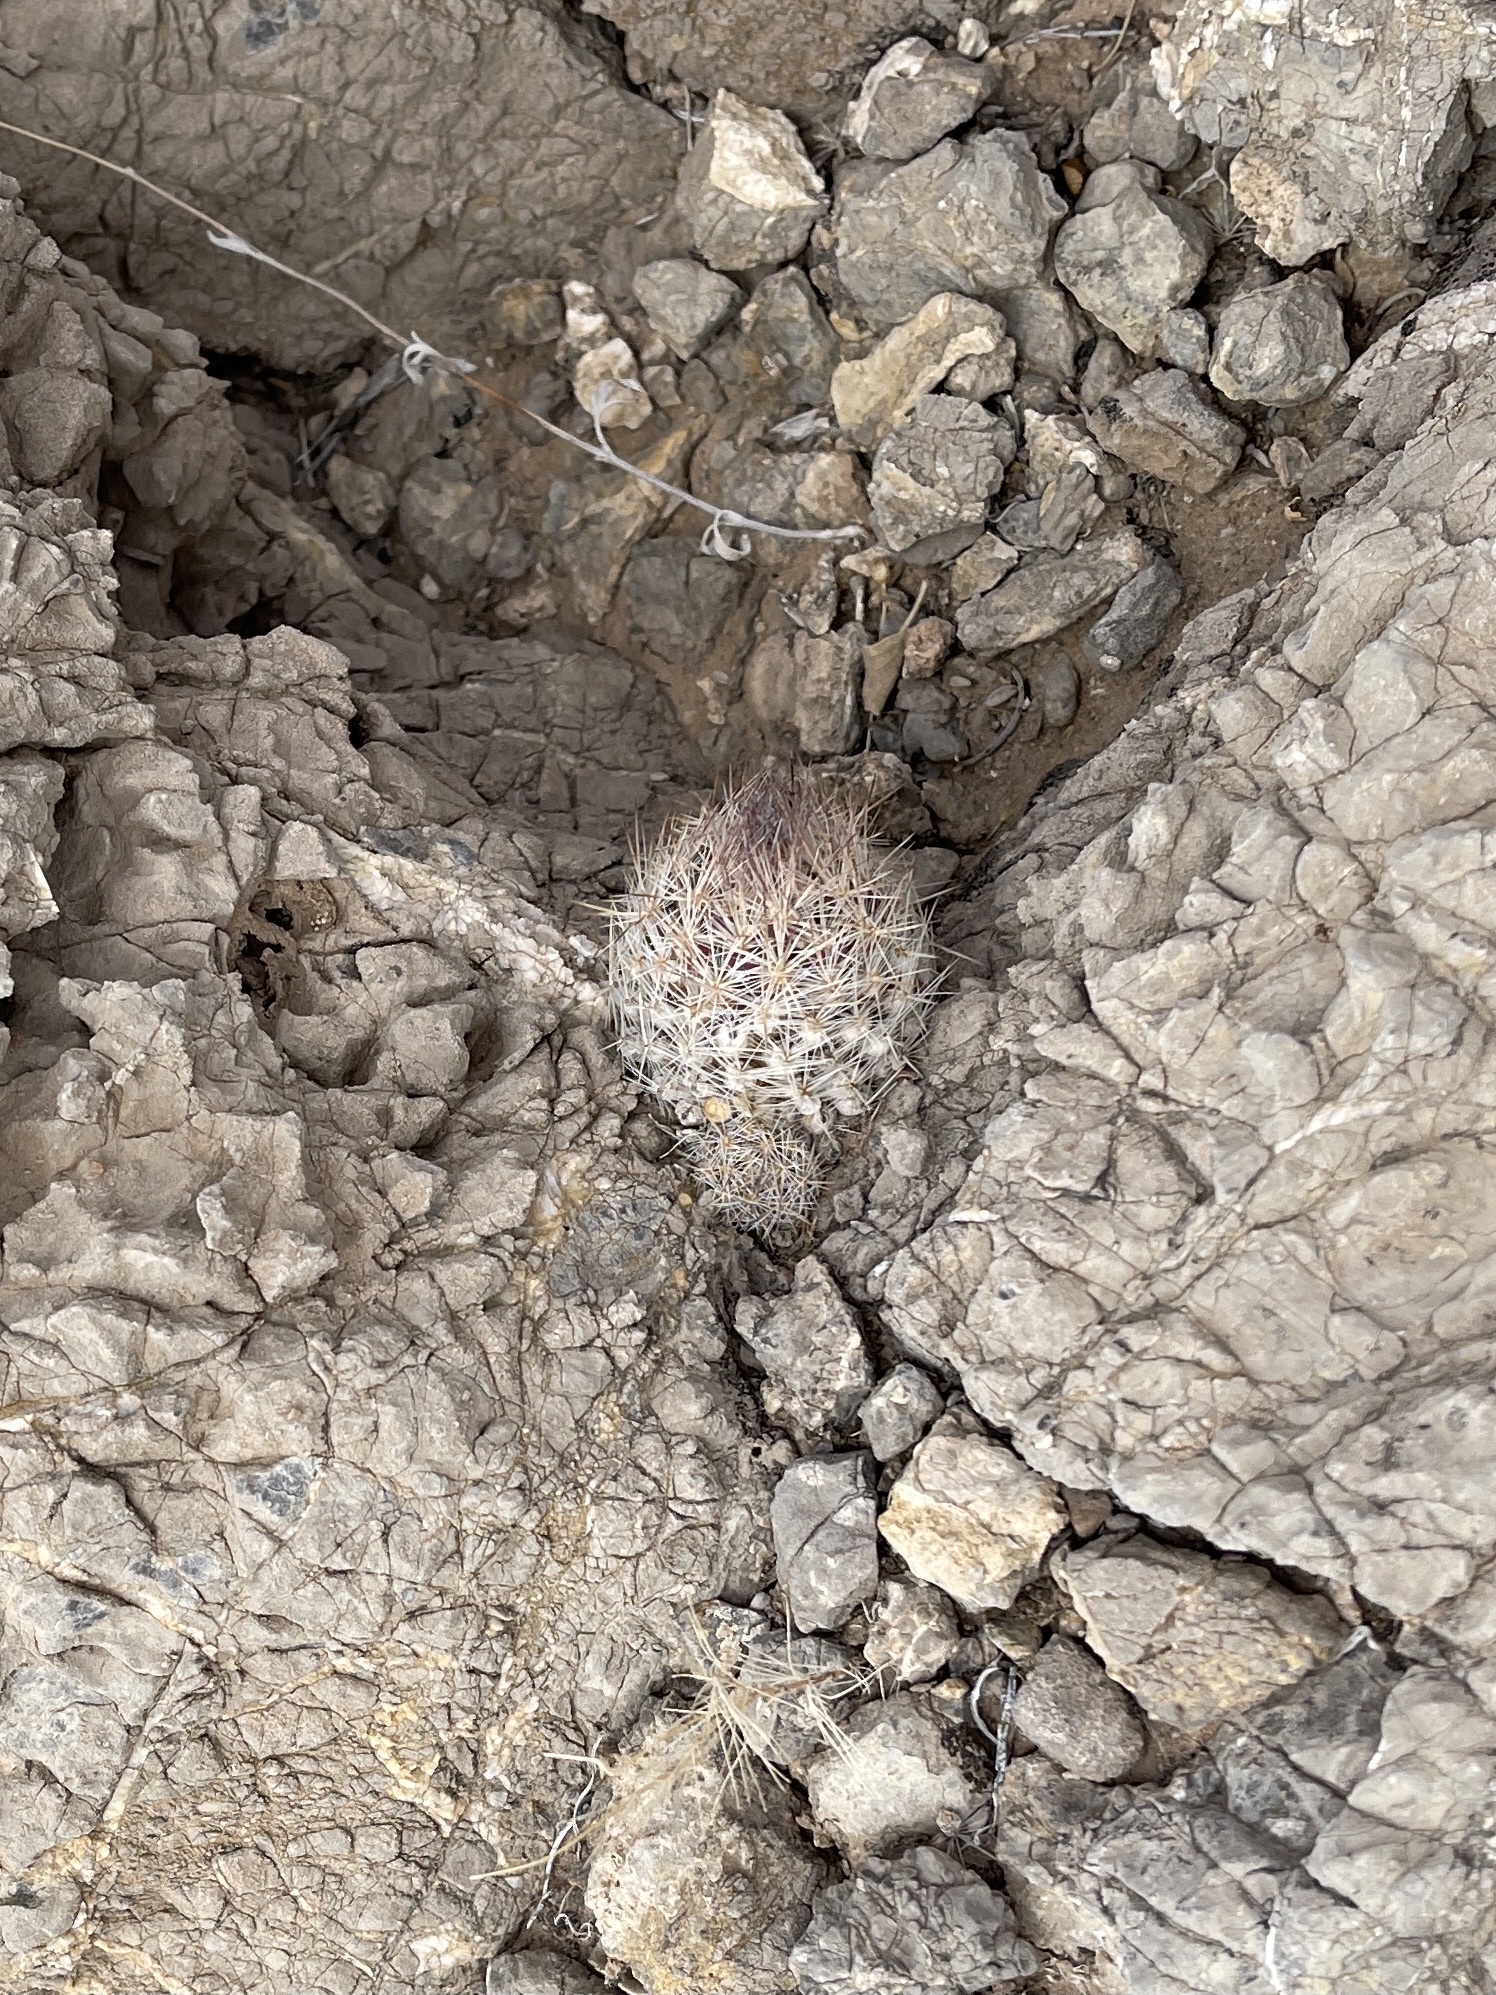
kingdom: Plantae
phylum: Tracheophyta
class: Magnoliopsida
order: Caryophyllales
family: Cactaceae
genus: Pelecyphora
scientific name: Pelecyphora tuberculosa
